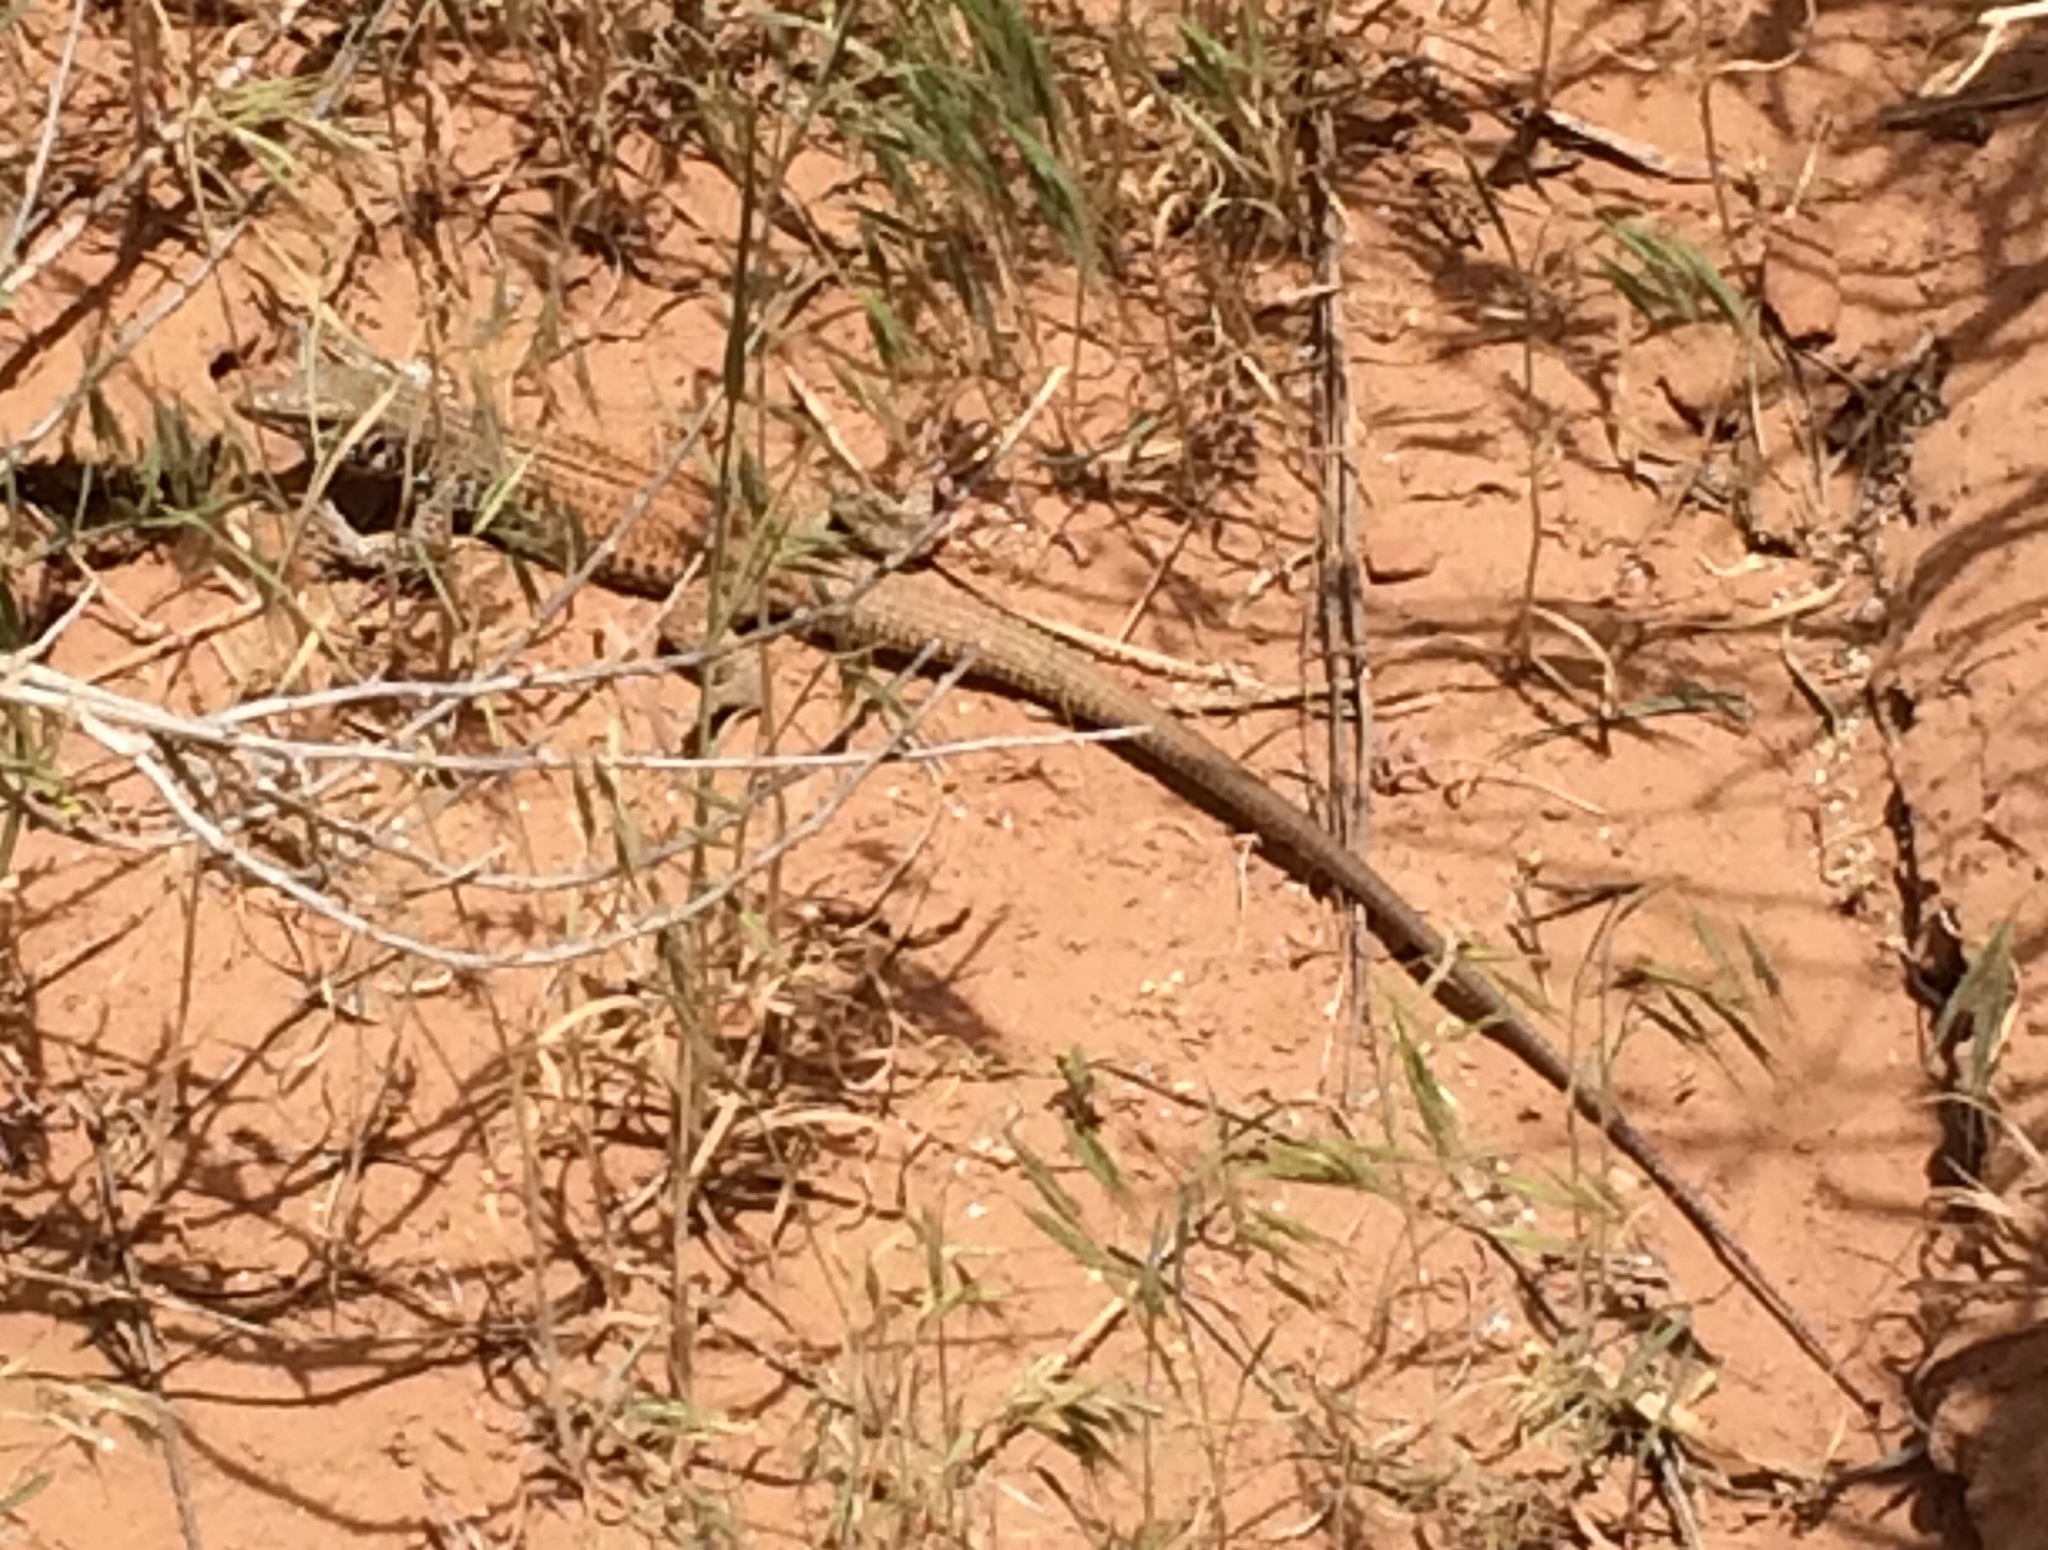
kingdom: Animalia
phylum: Chordata
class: Squamata
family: Teiidae
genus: Aspidoscelis
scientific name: Aspidoscelis tigris
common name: Tiger whiptail
